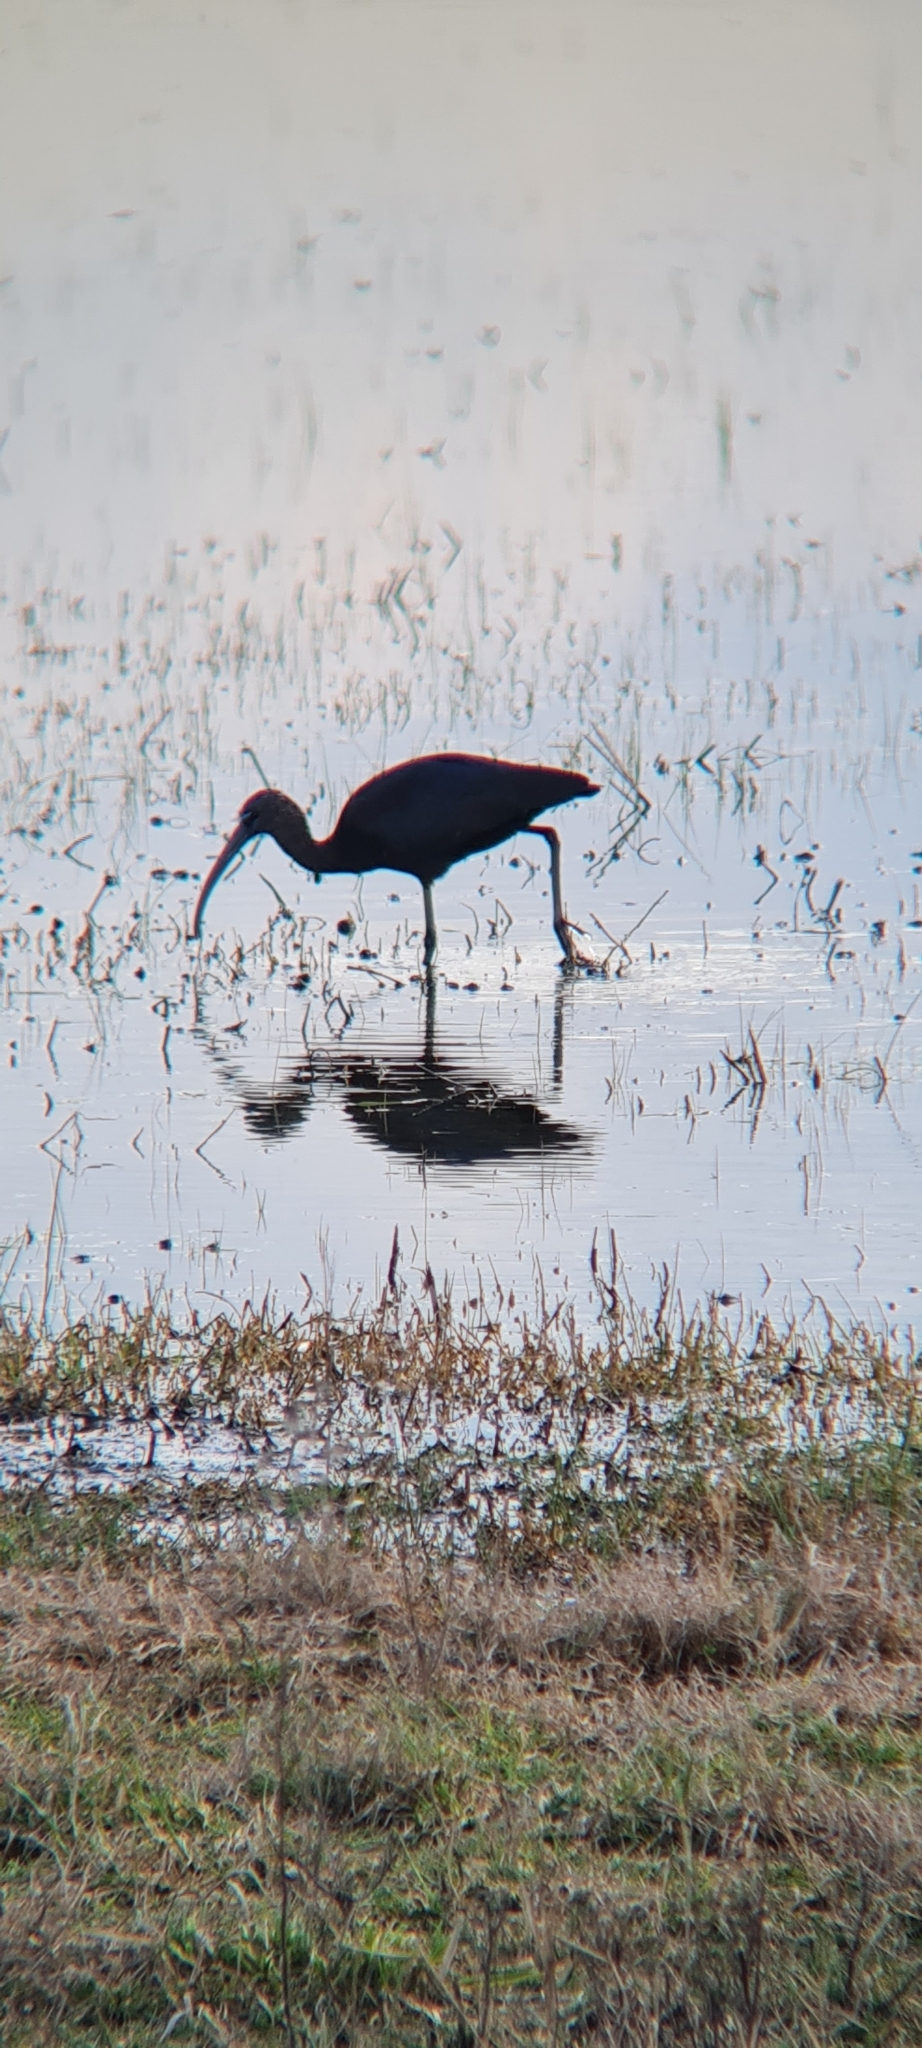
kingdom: Animalia
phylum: Chordata
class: Aves
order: Pelecaniformes
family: Threskiornithidae
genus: Plegadis
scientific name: Plegadis falcinellus
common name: Glossy ibis
